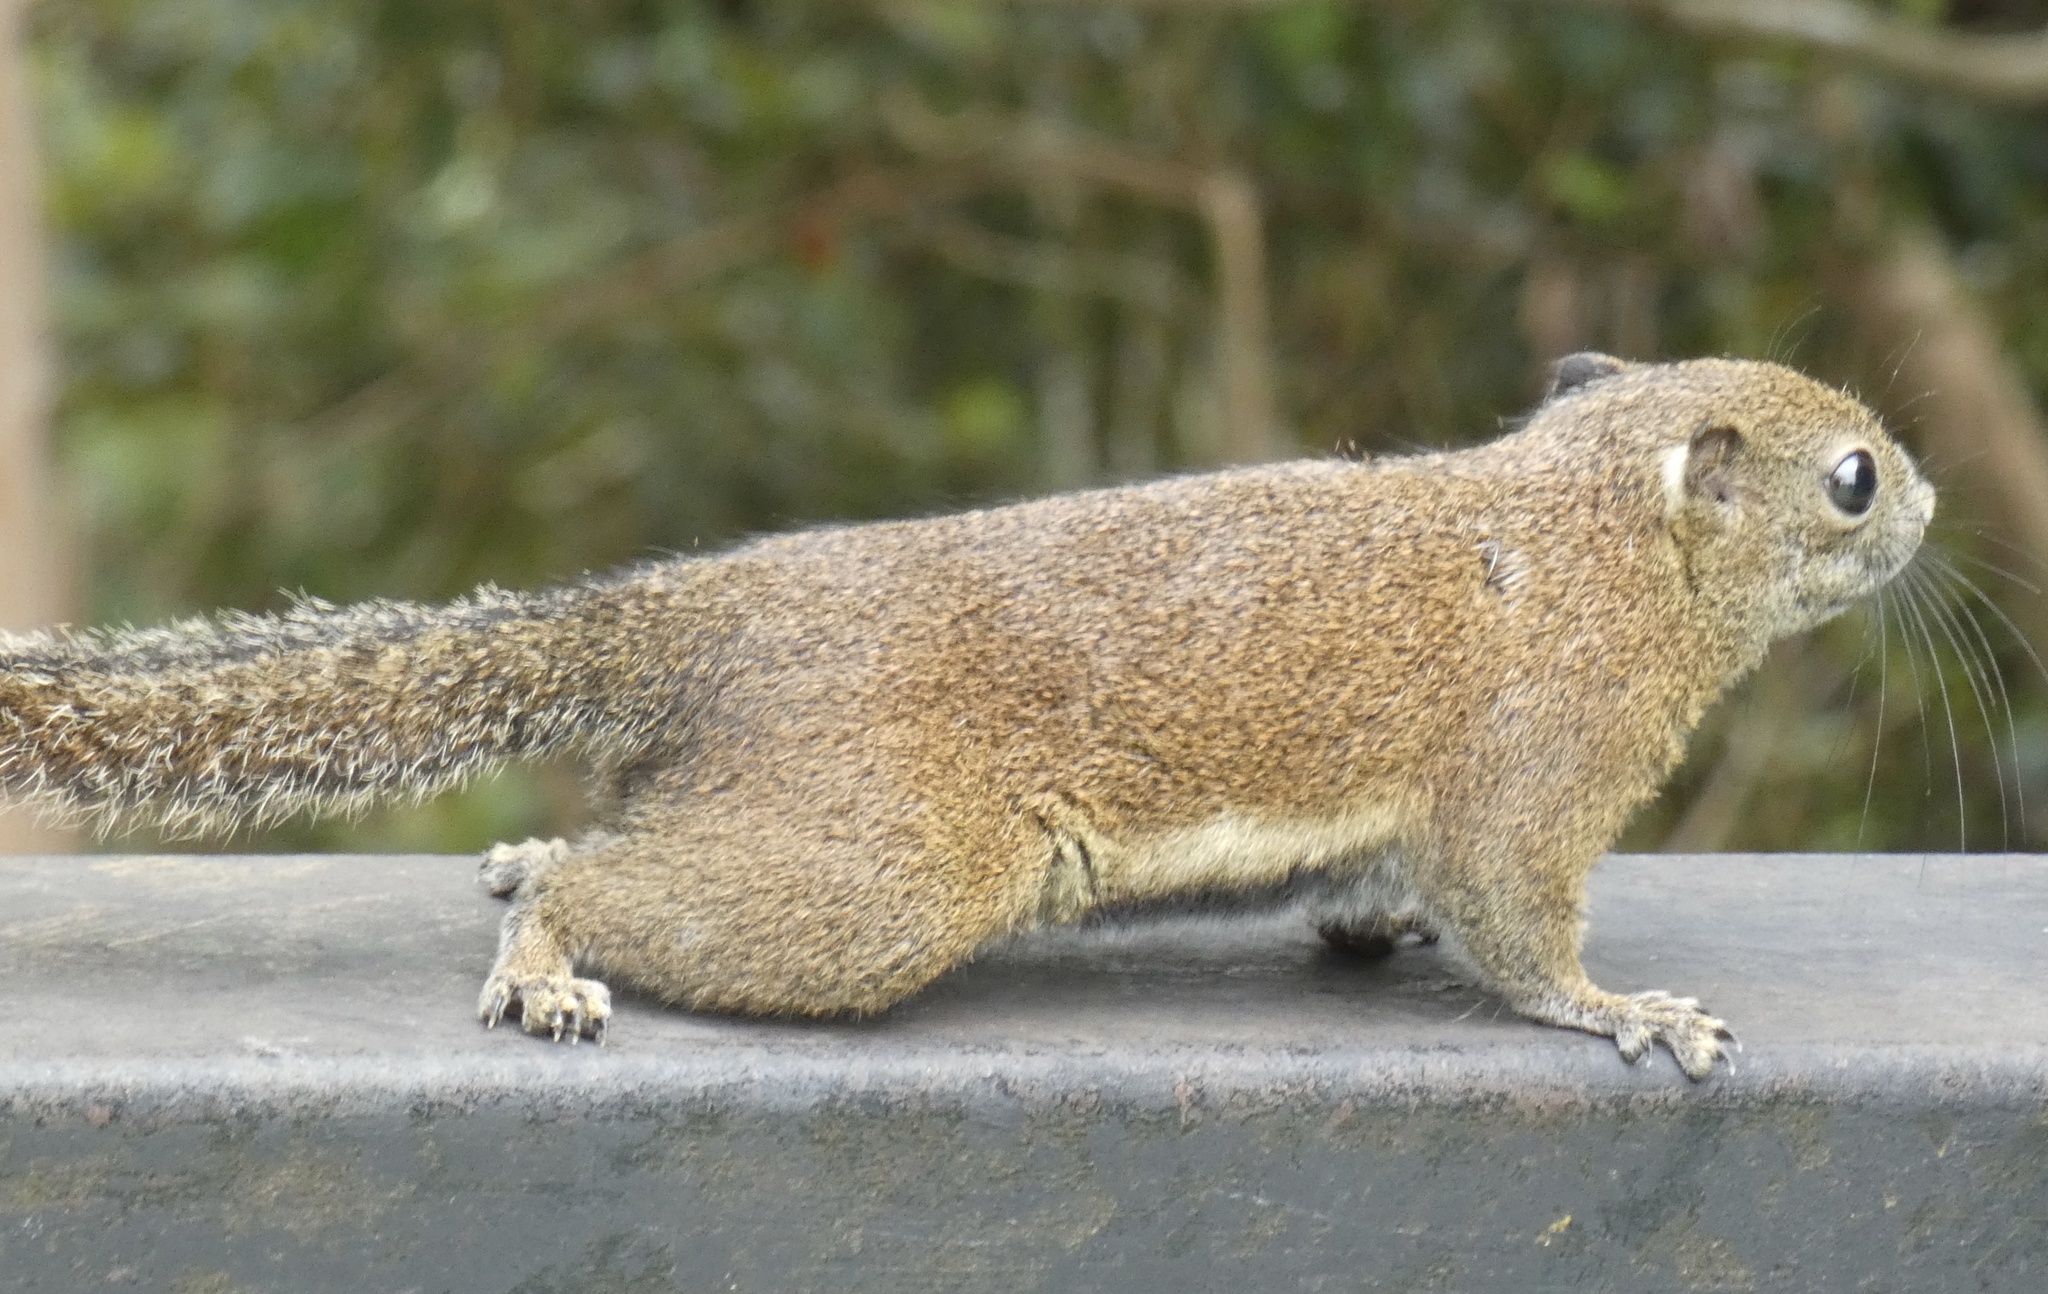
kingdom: Animalia
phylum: Chordata
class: Mammalia
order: Rodentia
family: Sciuridae
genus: Callosciurus
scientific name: Callosciurus orestes
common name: Borneo black-banded squirrel
